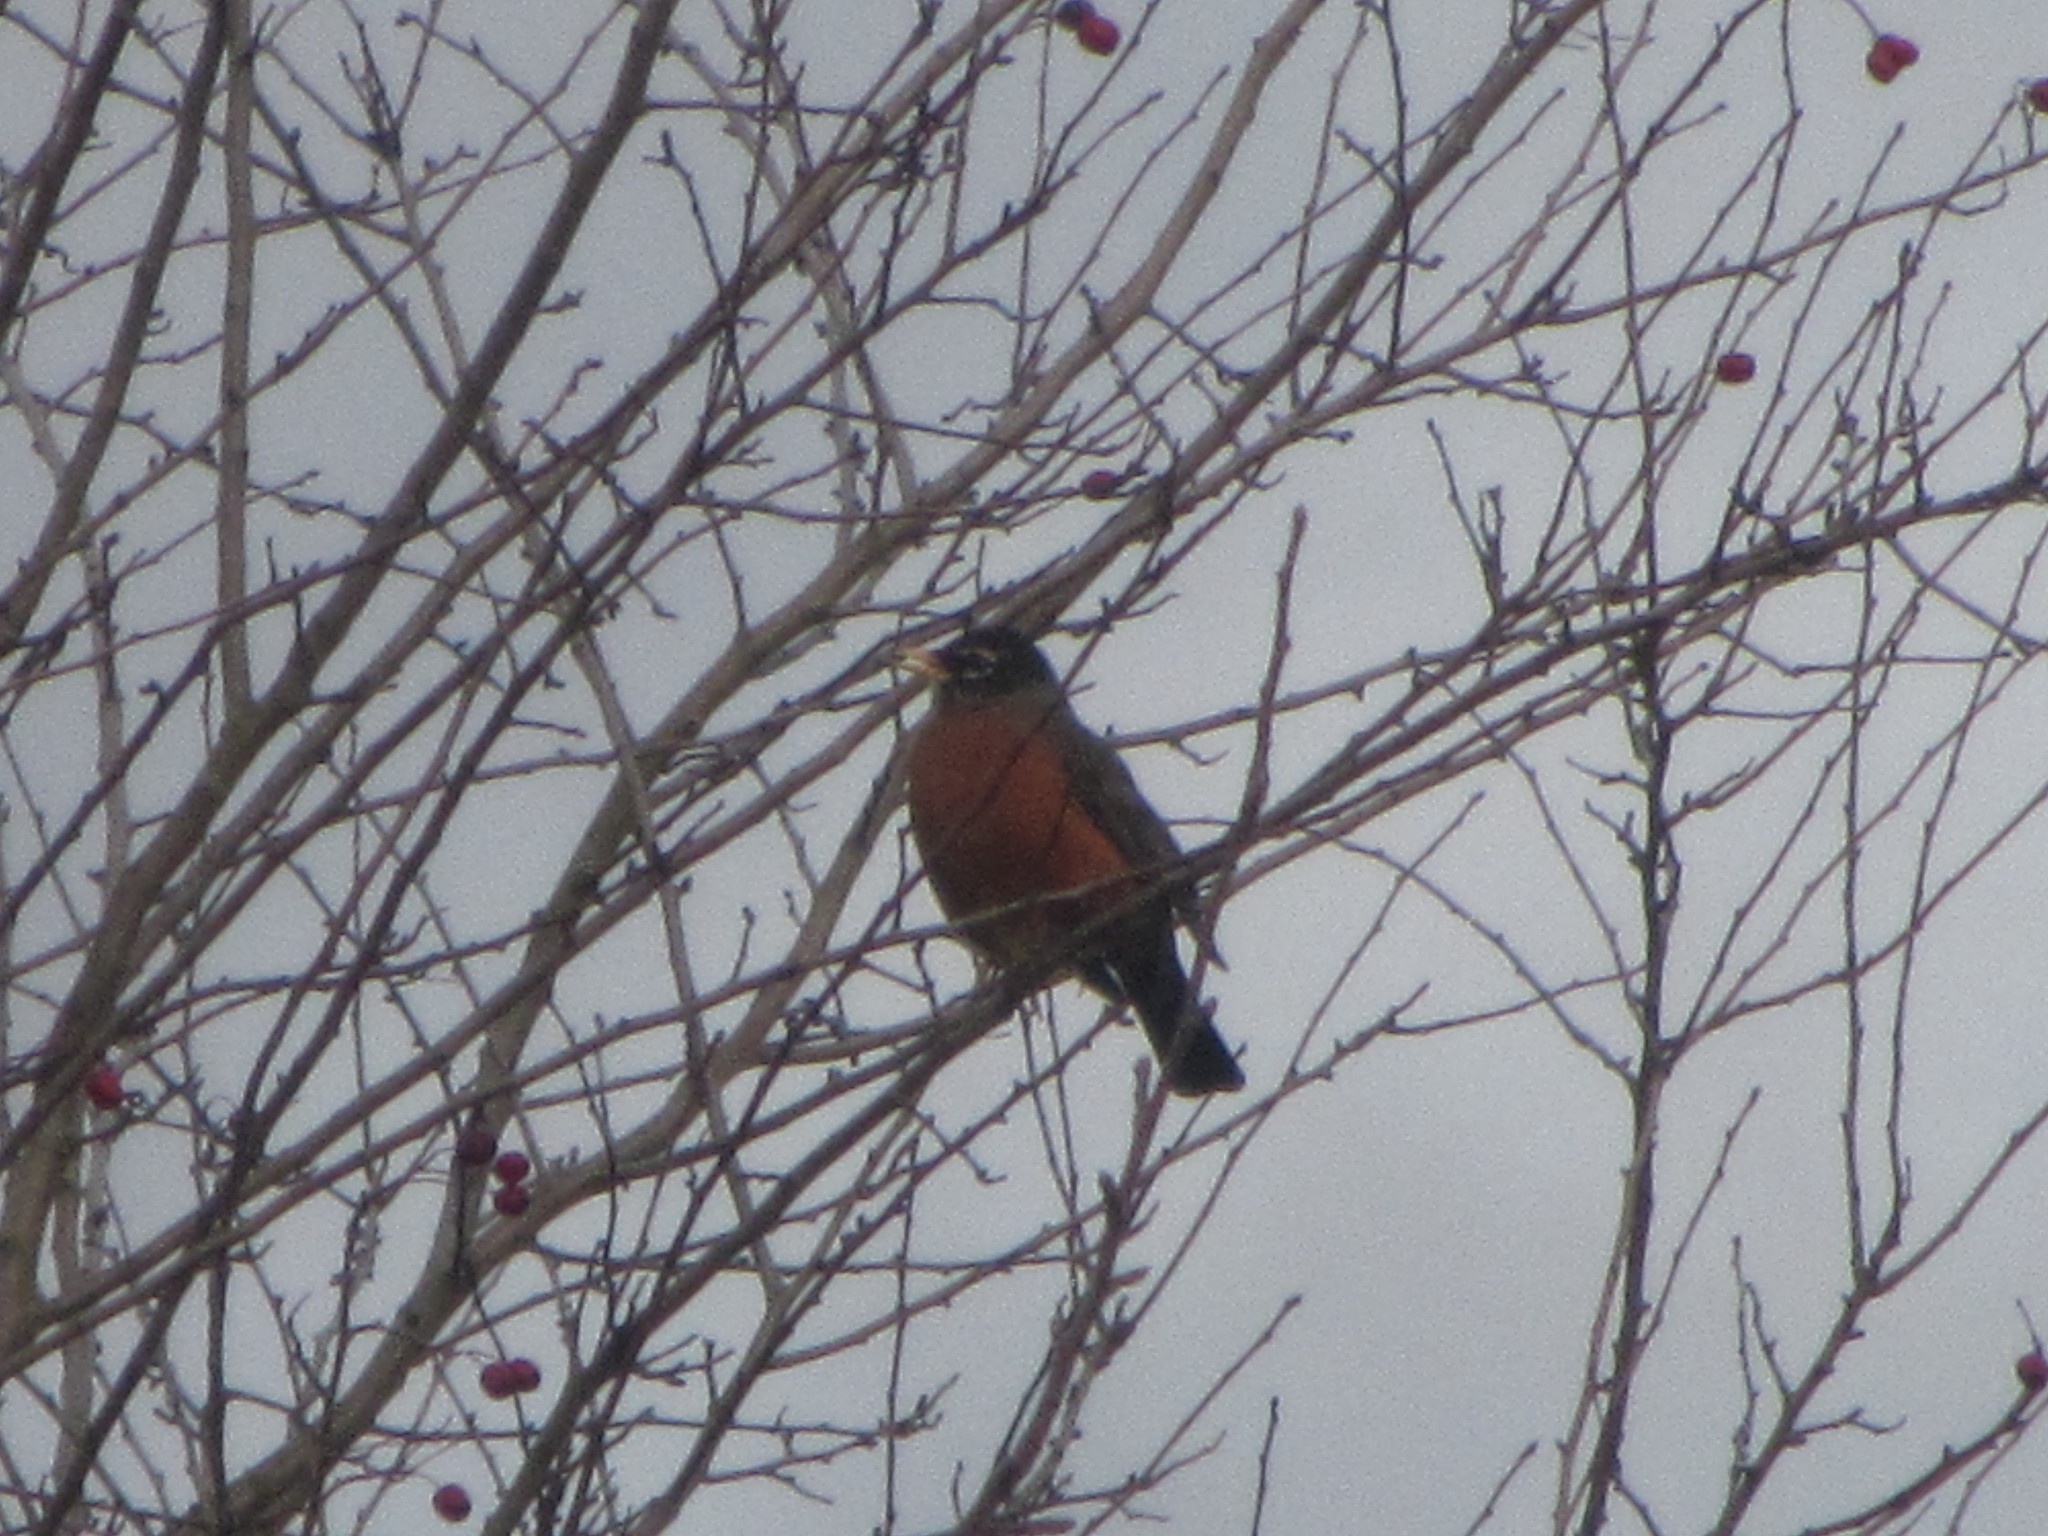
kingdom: Animalia
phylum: Chordata
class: Aves
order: Passeriformes
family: Turdidae
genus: Turdus
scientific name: Turdus migratorius
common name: American robin
